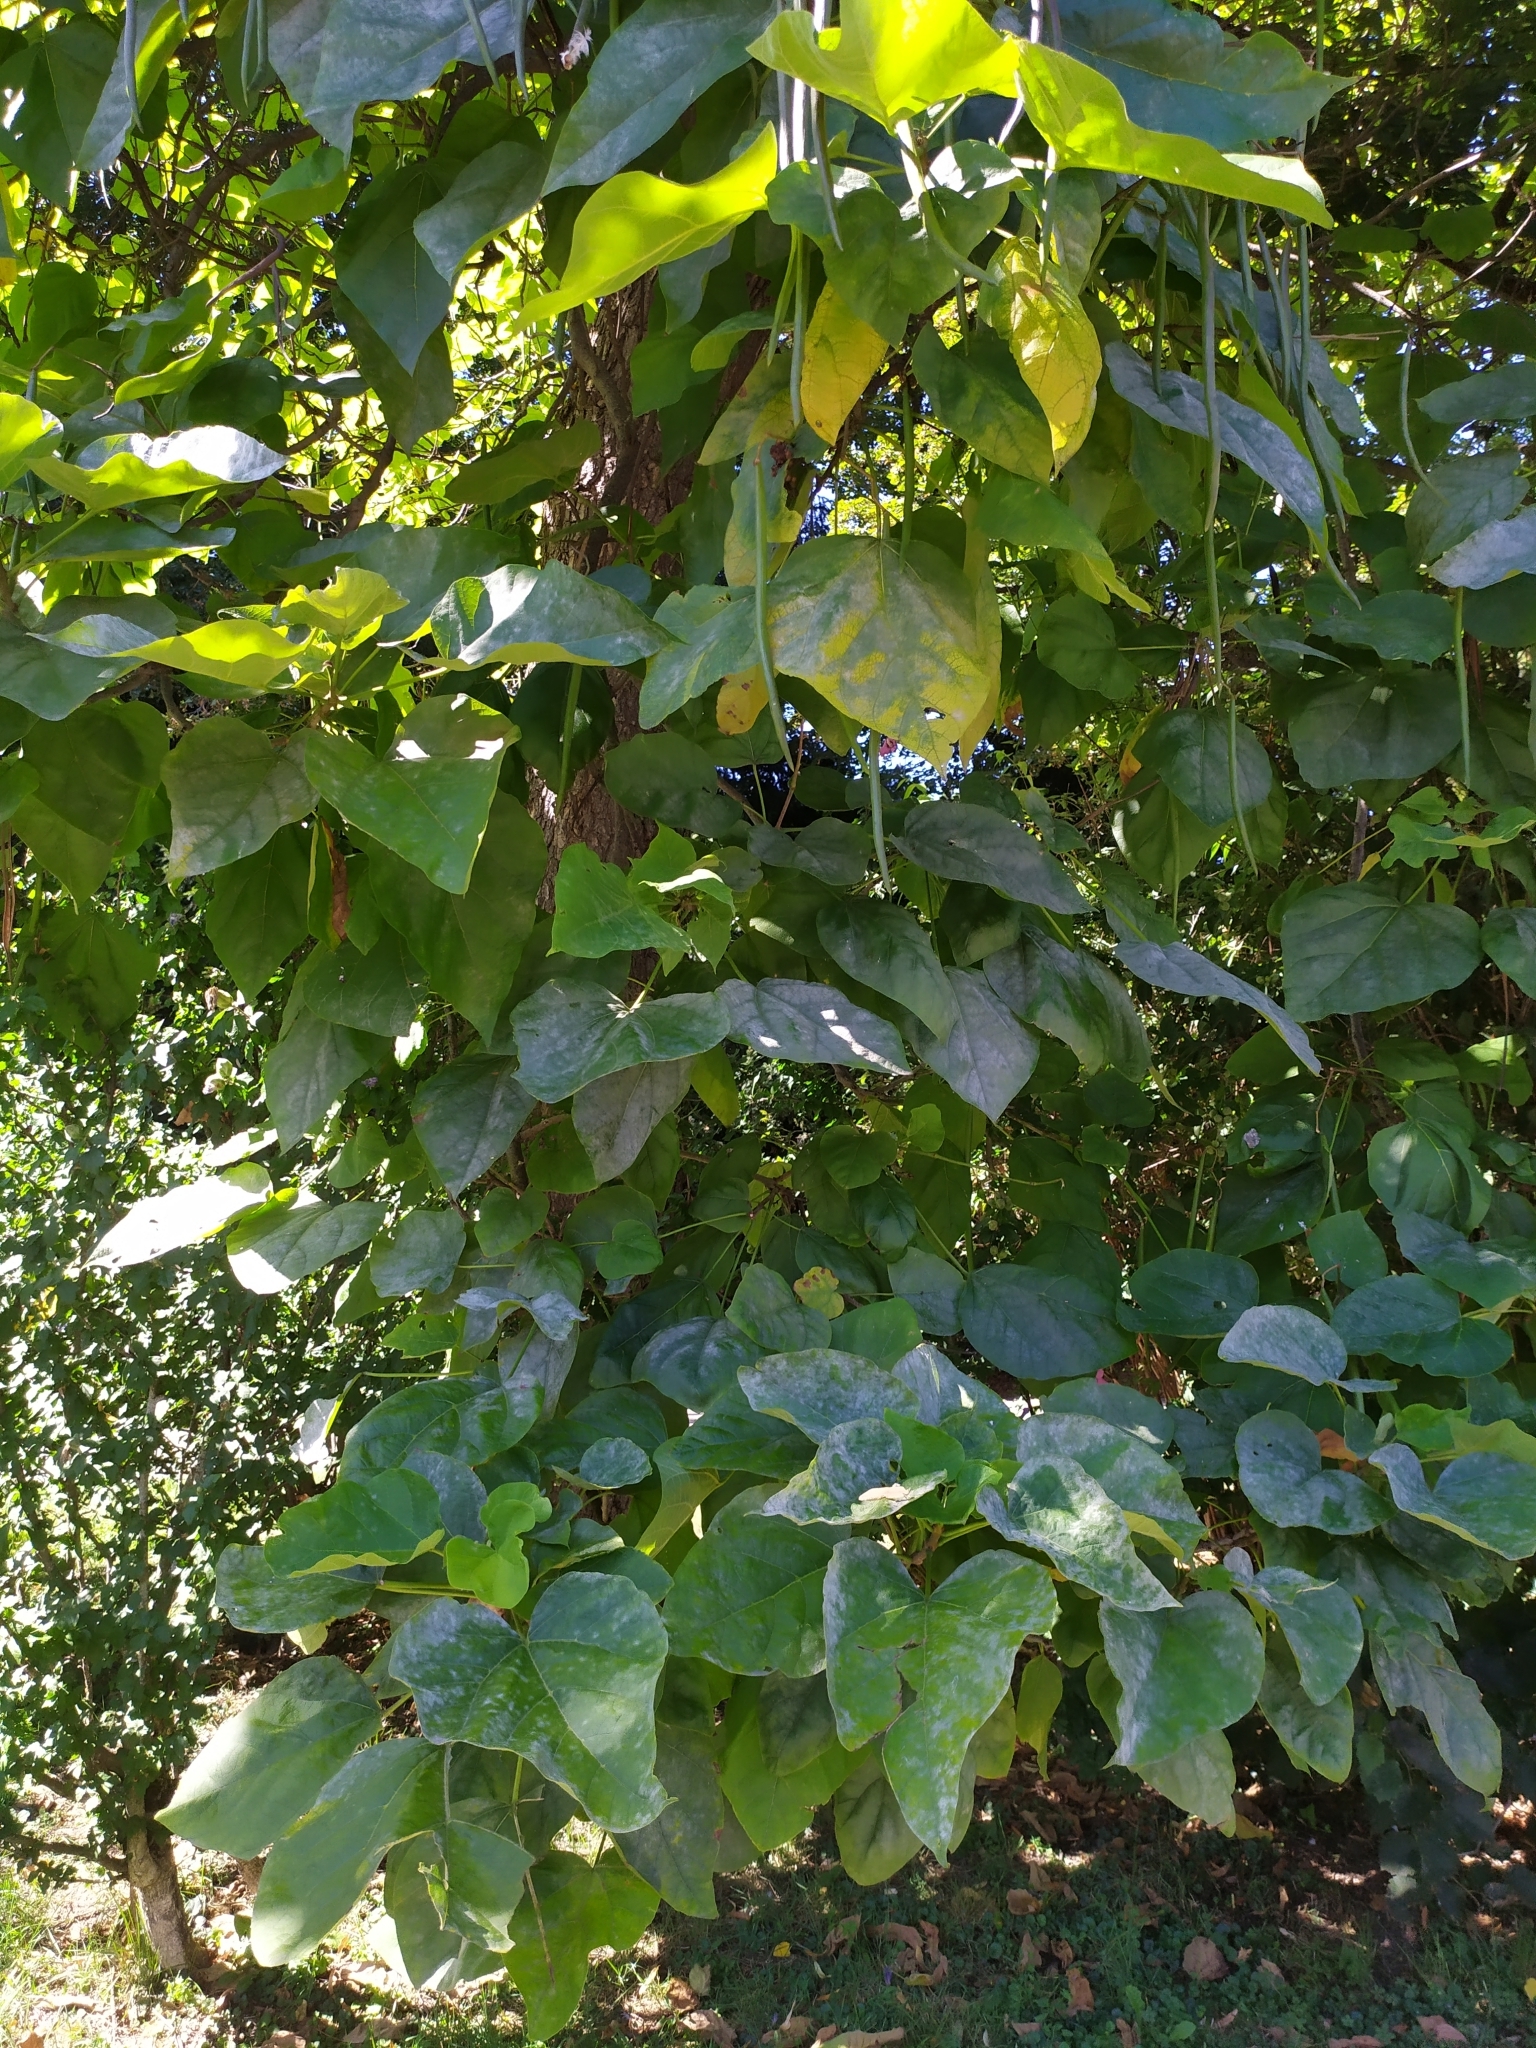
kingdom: Fungi
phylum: Ascomycota
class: Leotiomycetes
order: Helotiales
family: Erysiphaceae
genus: Erysiphe
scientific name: Erysiphe elevata
